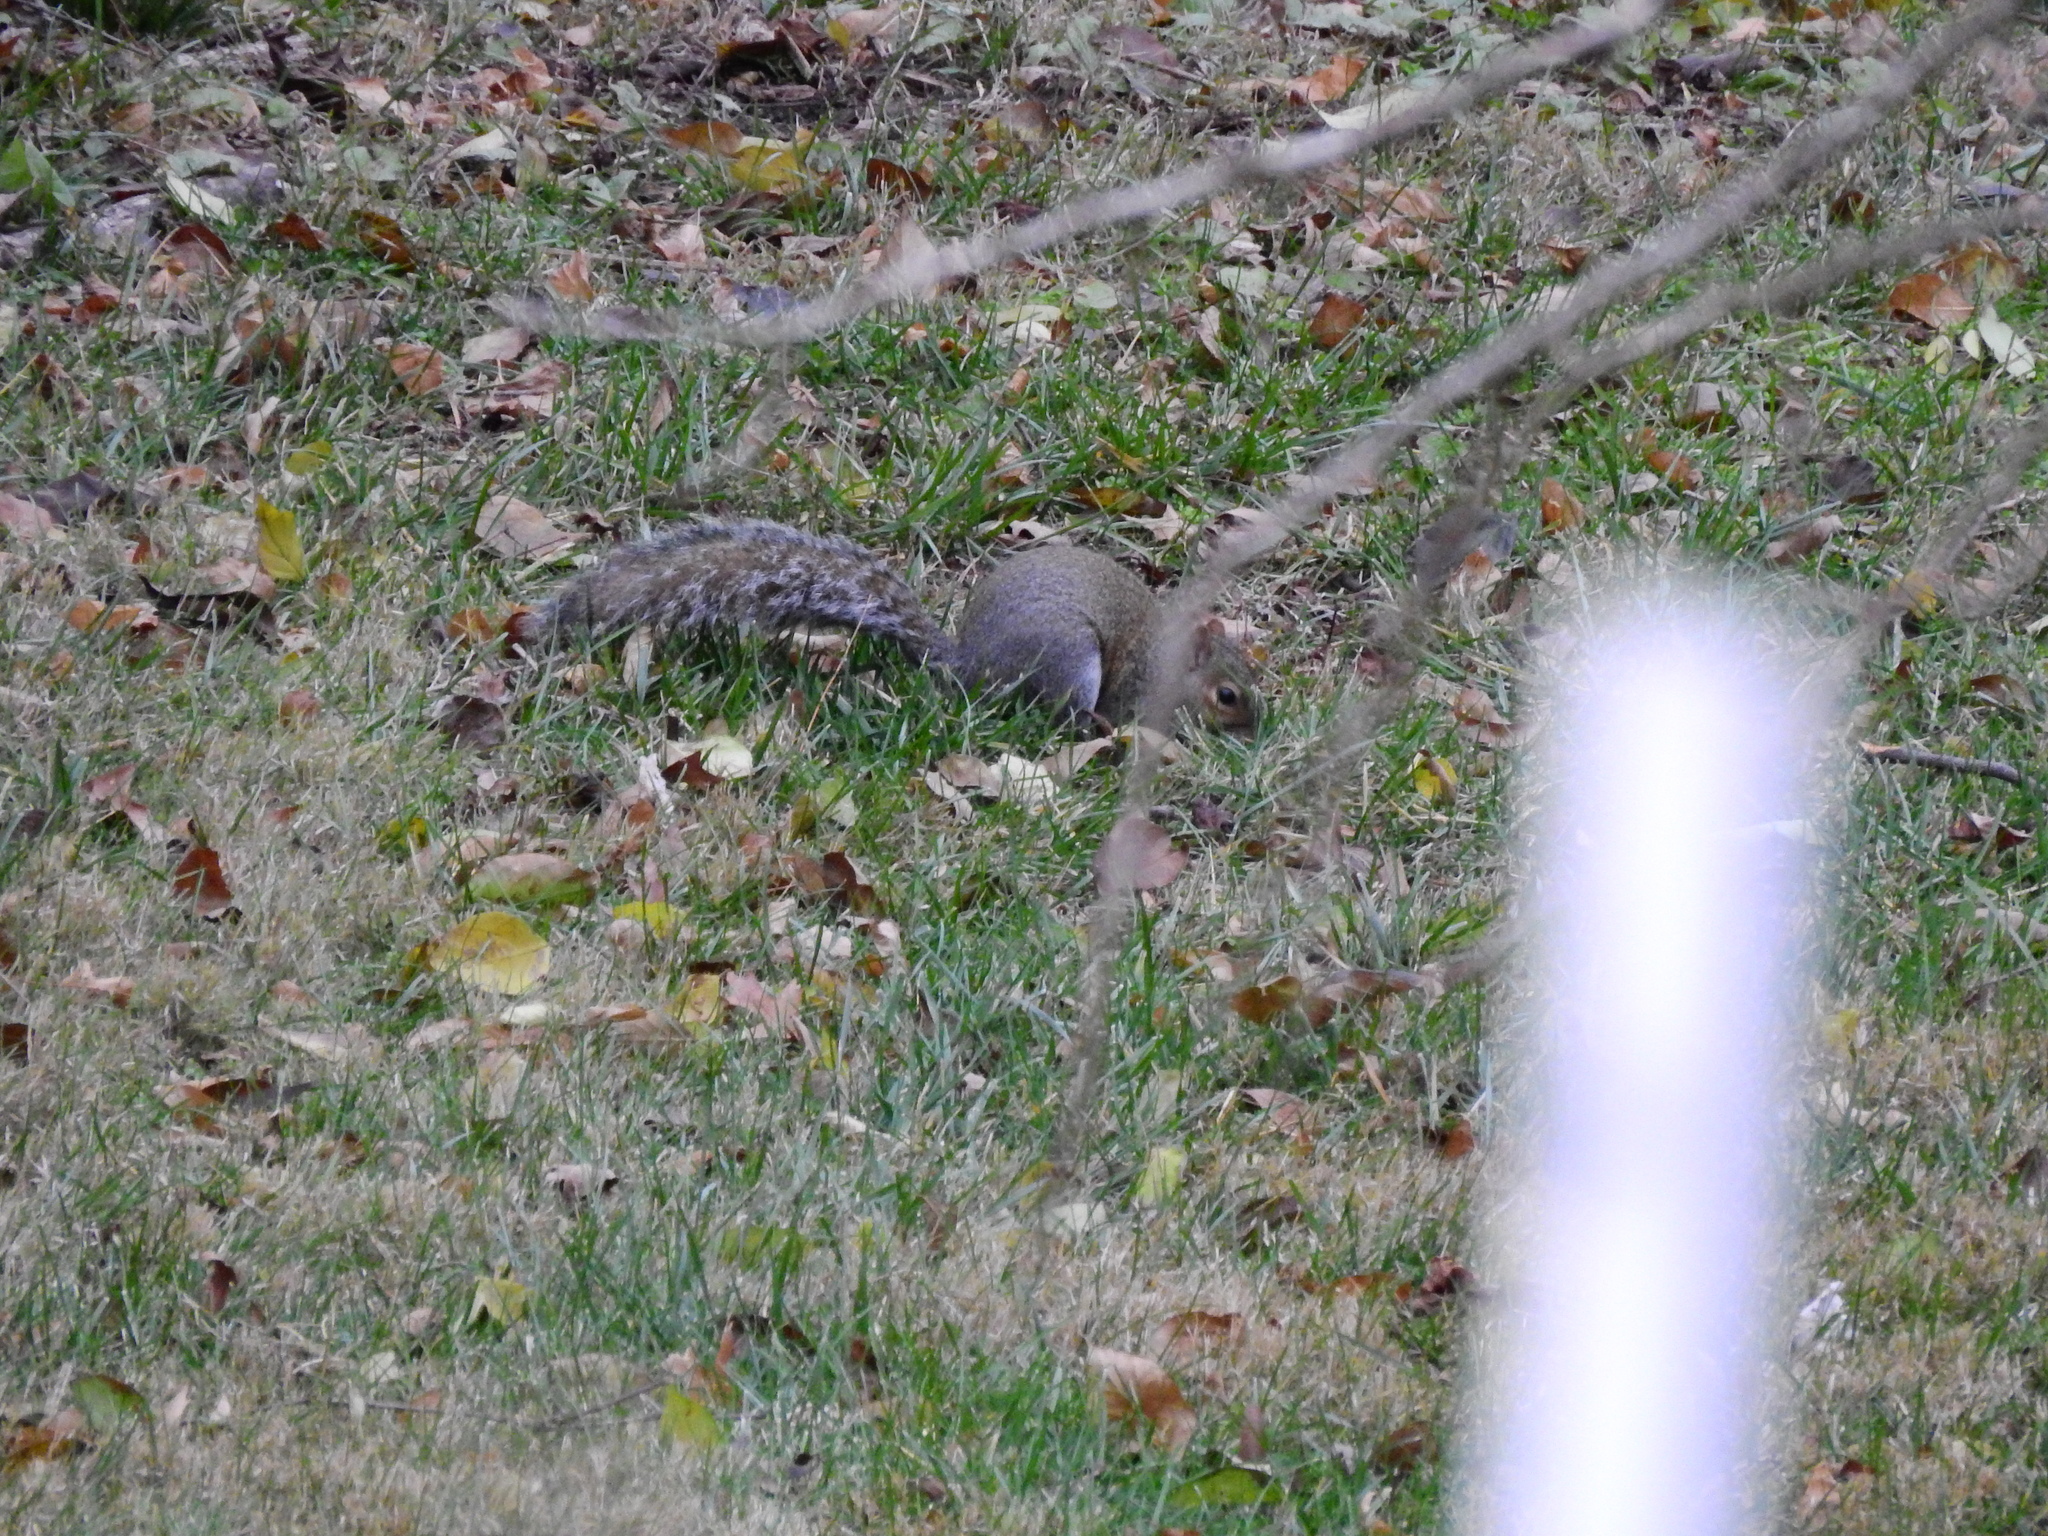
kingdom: Animalia
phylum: Chordata
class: Mammalia
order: Rodentia
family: Sciuridae
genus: Sciurus
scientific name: Sciurus carolinensis
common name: Eastern gray squirrel
